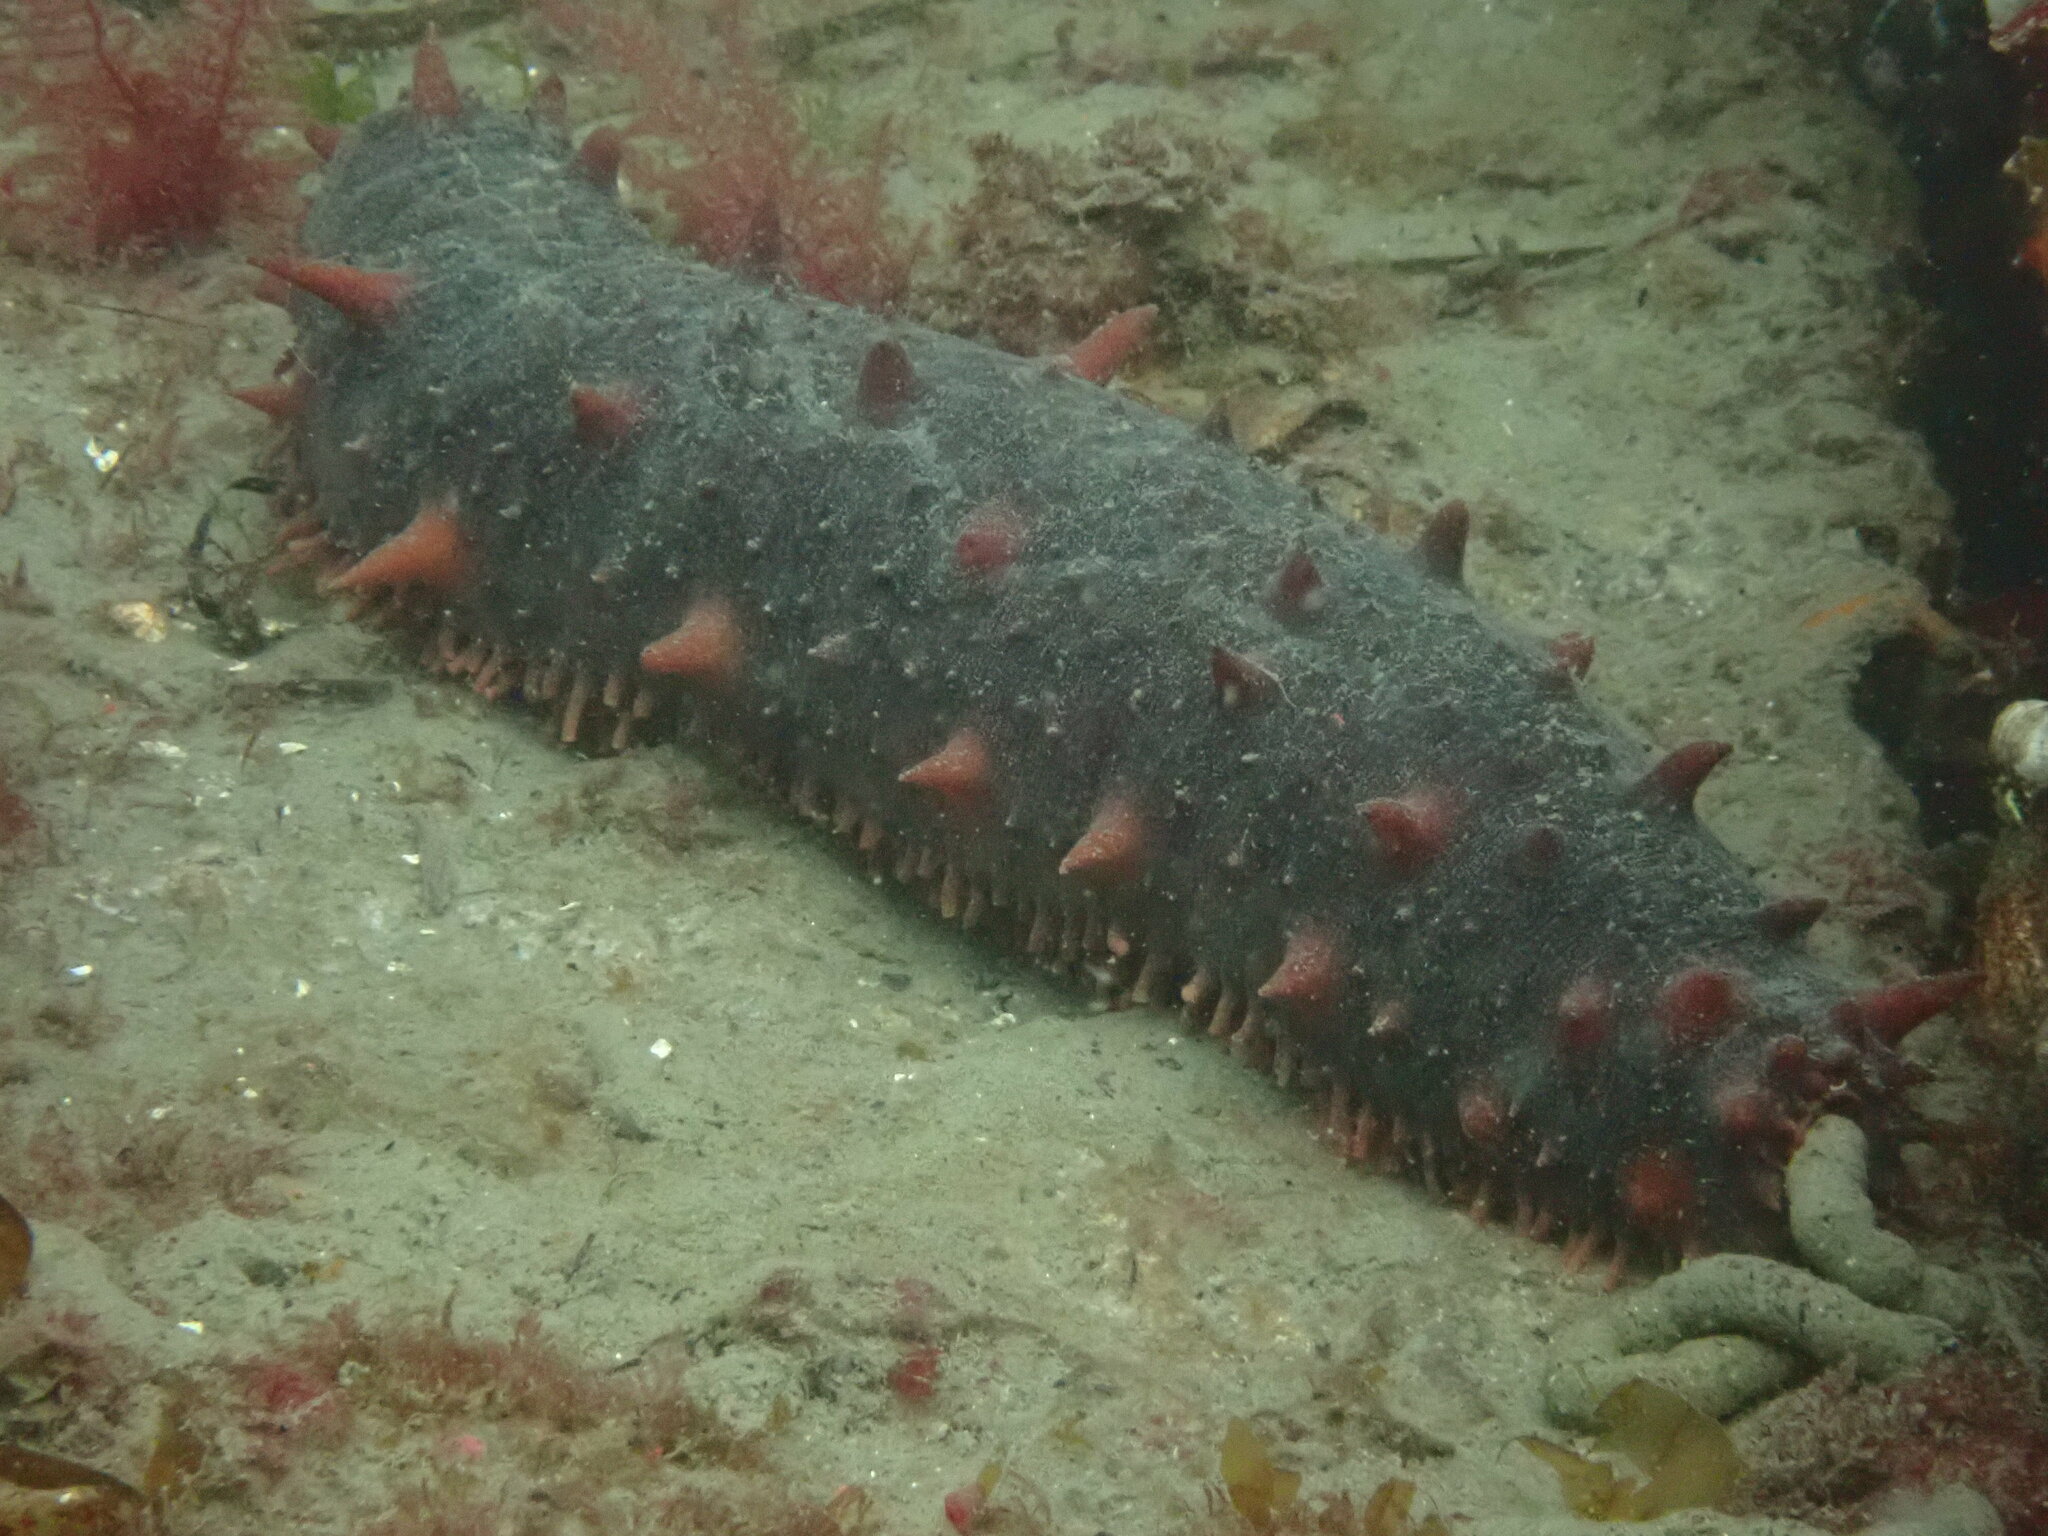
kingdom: Animalia
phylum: Echinodermata
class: Holothuroidea
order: Synallactida
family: Stichopodidae
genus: Apostichopus
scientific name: Apostichopus californicus
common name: California sea cucumber
